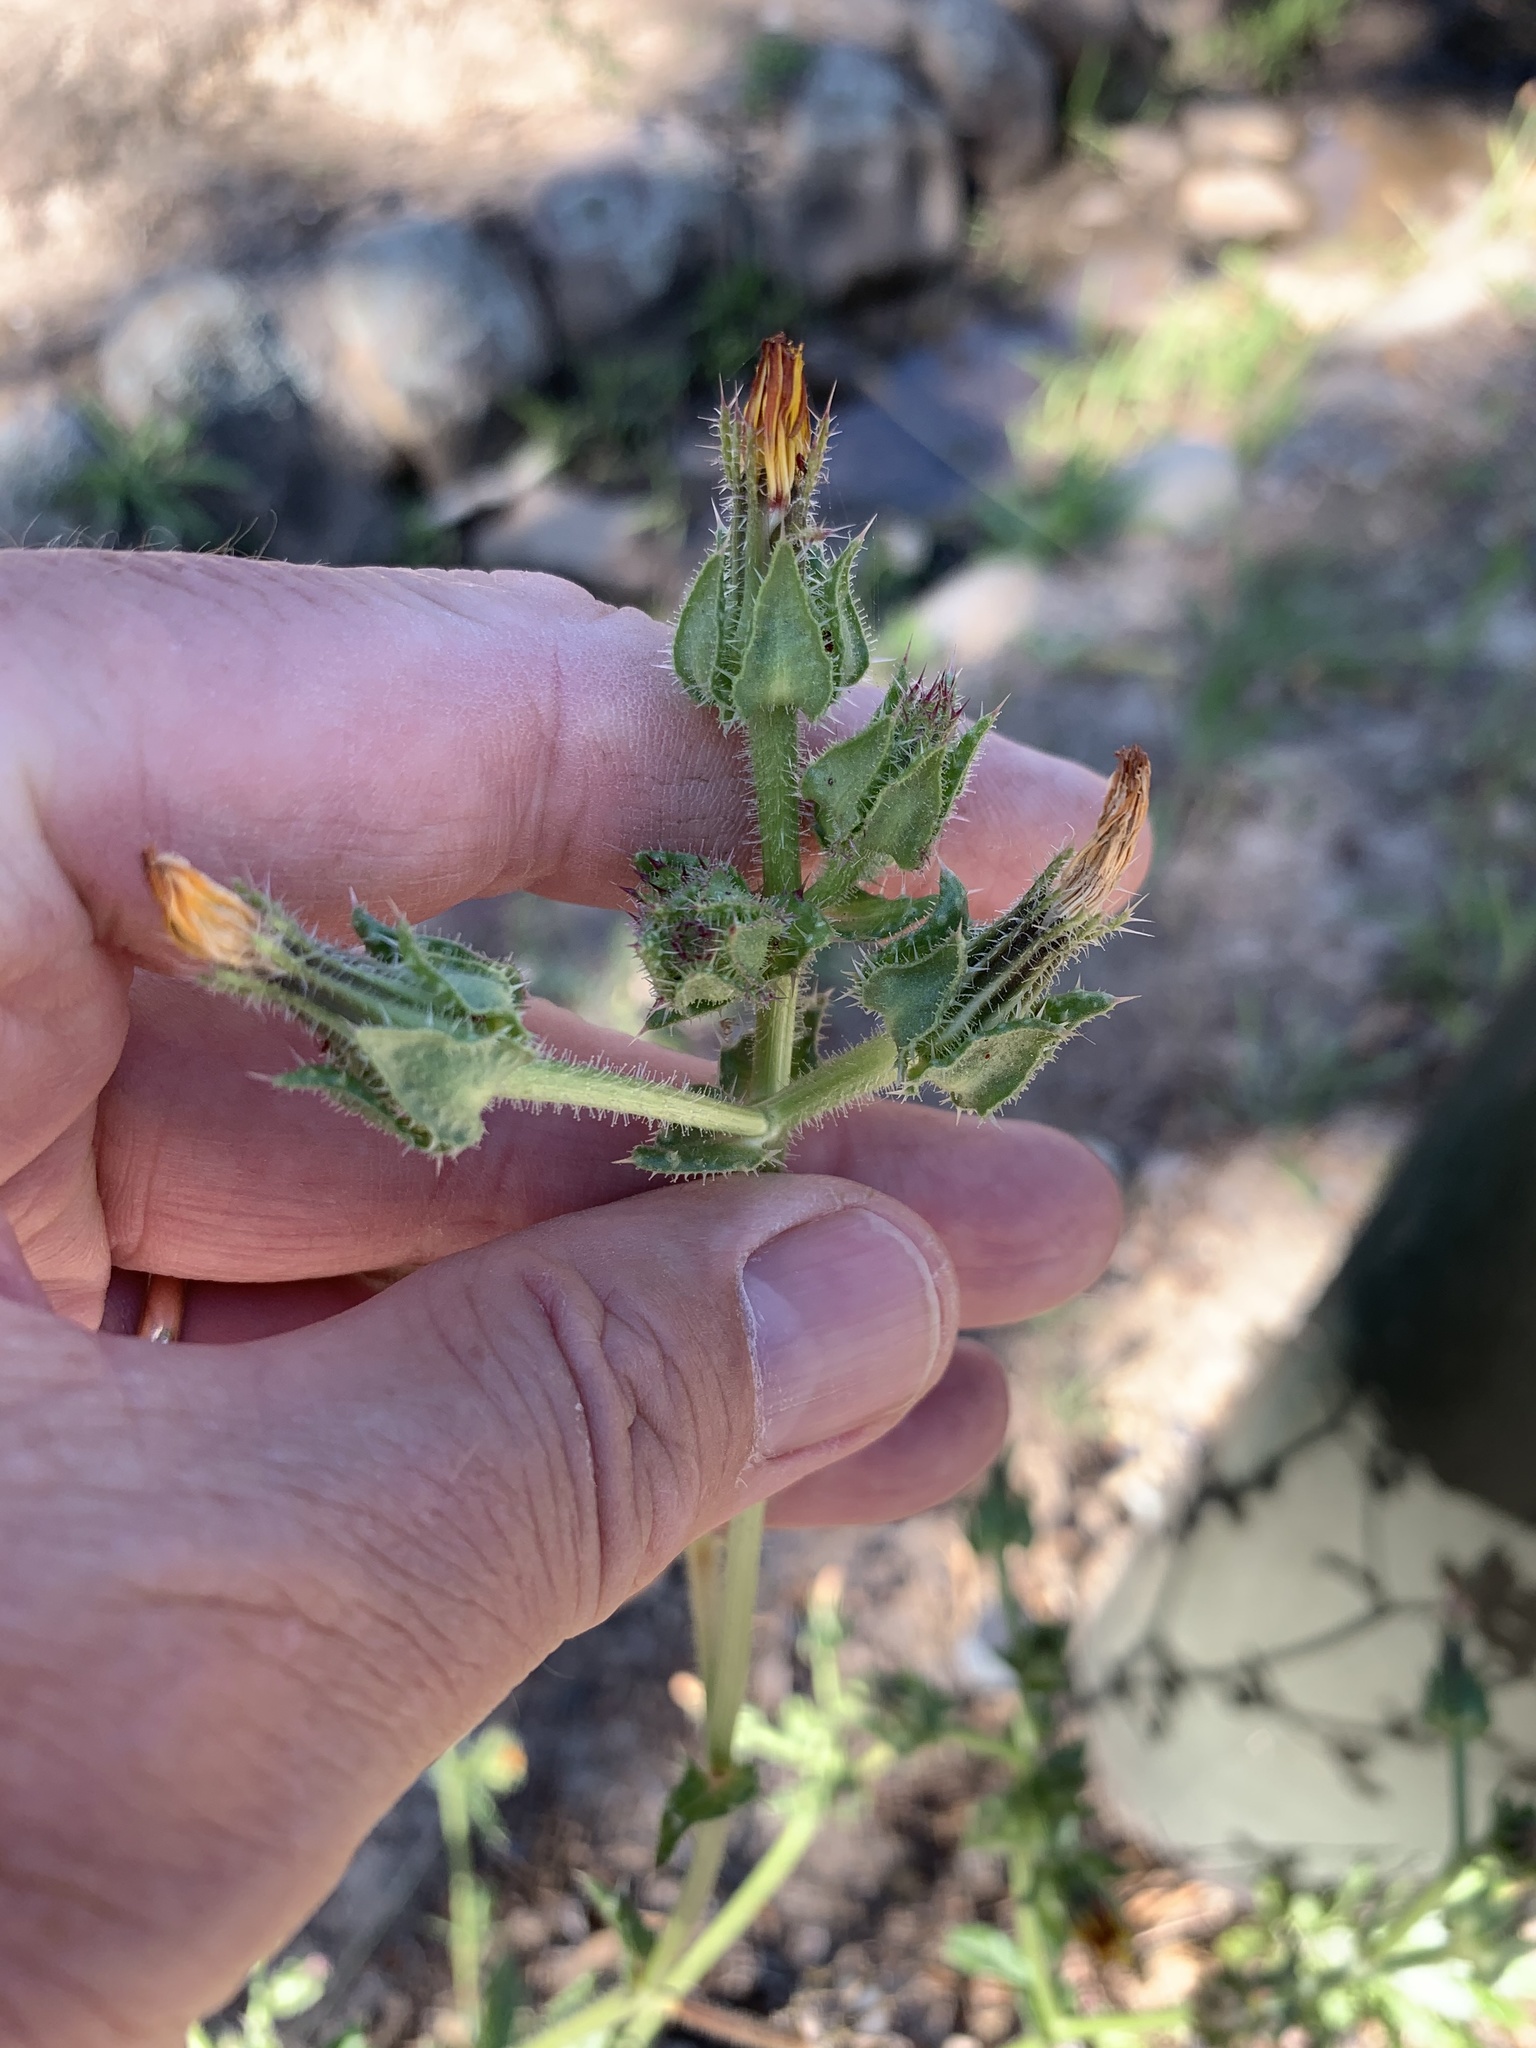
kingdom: Plantae
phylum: Tracheophyta
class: Magnoliopsida
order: Asterales
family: Asteraceae
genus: Helminthotheca
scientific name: Helminthotheca echioides
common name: Ox-tongue
